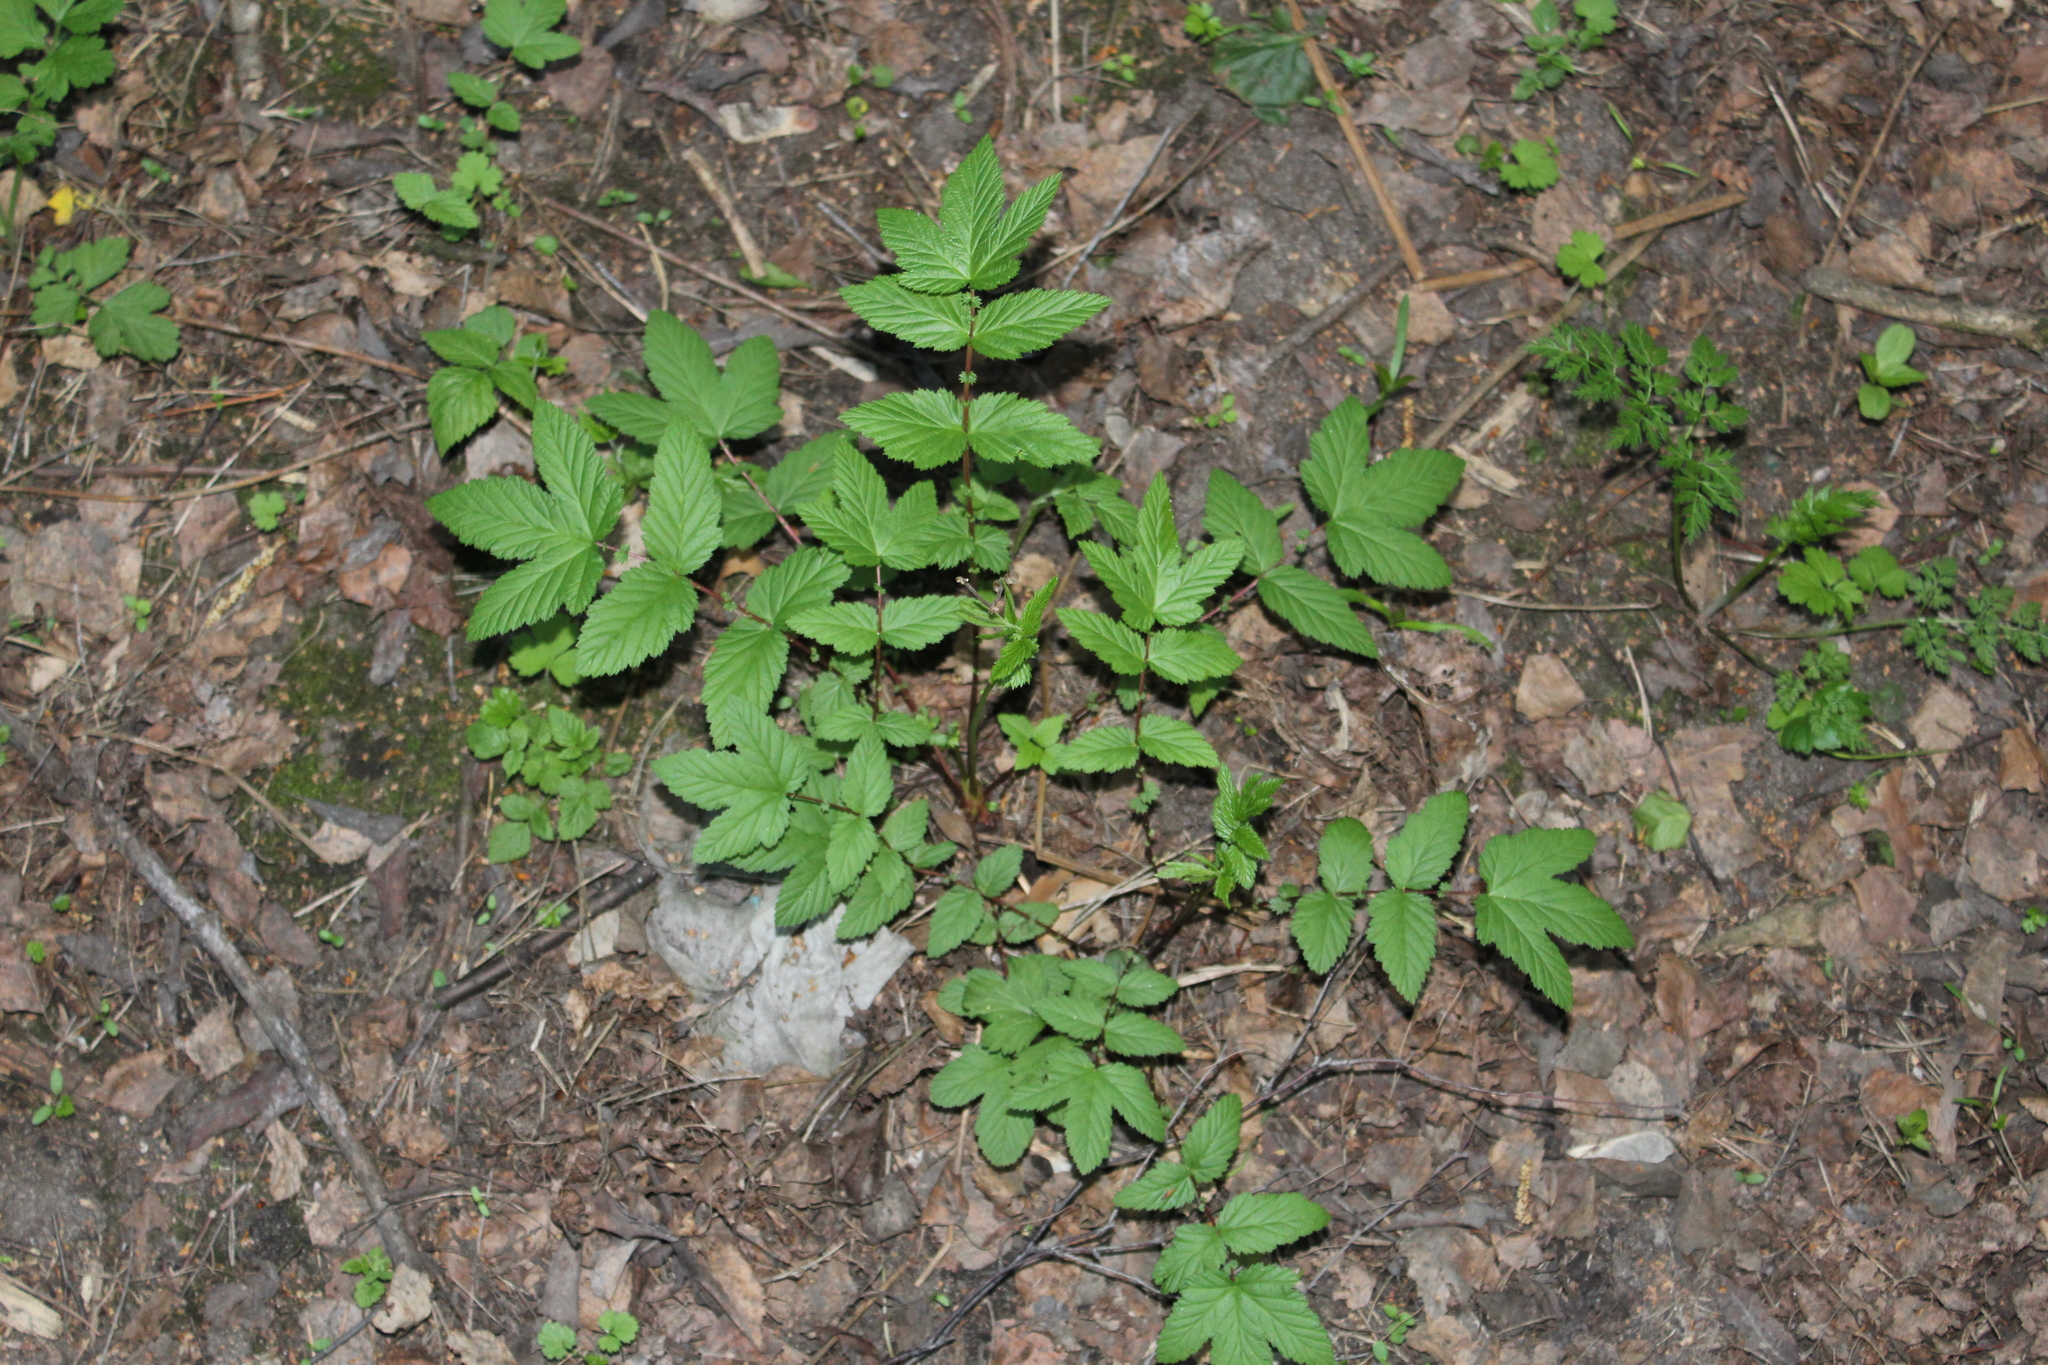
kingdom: Plantae
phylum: Tracheophyta
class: Magnoliopsida
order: Rosales
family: Rosaceae
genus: Filipendula
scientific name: Filipendula ulmaria
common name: Meadowsweet
